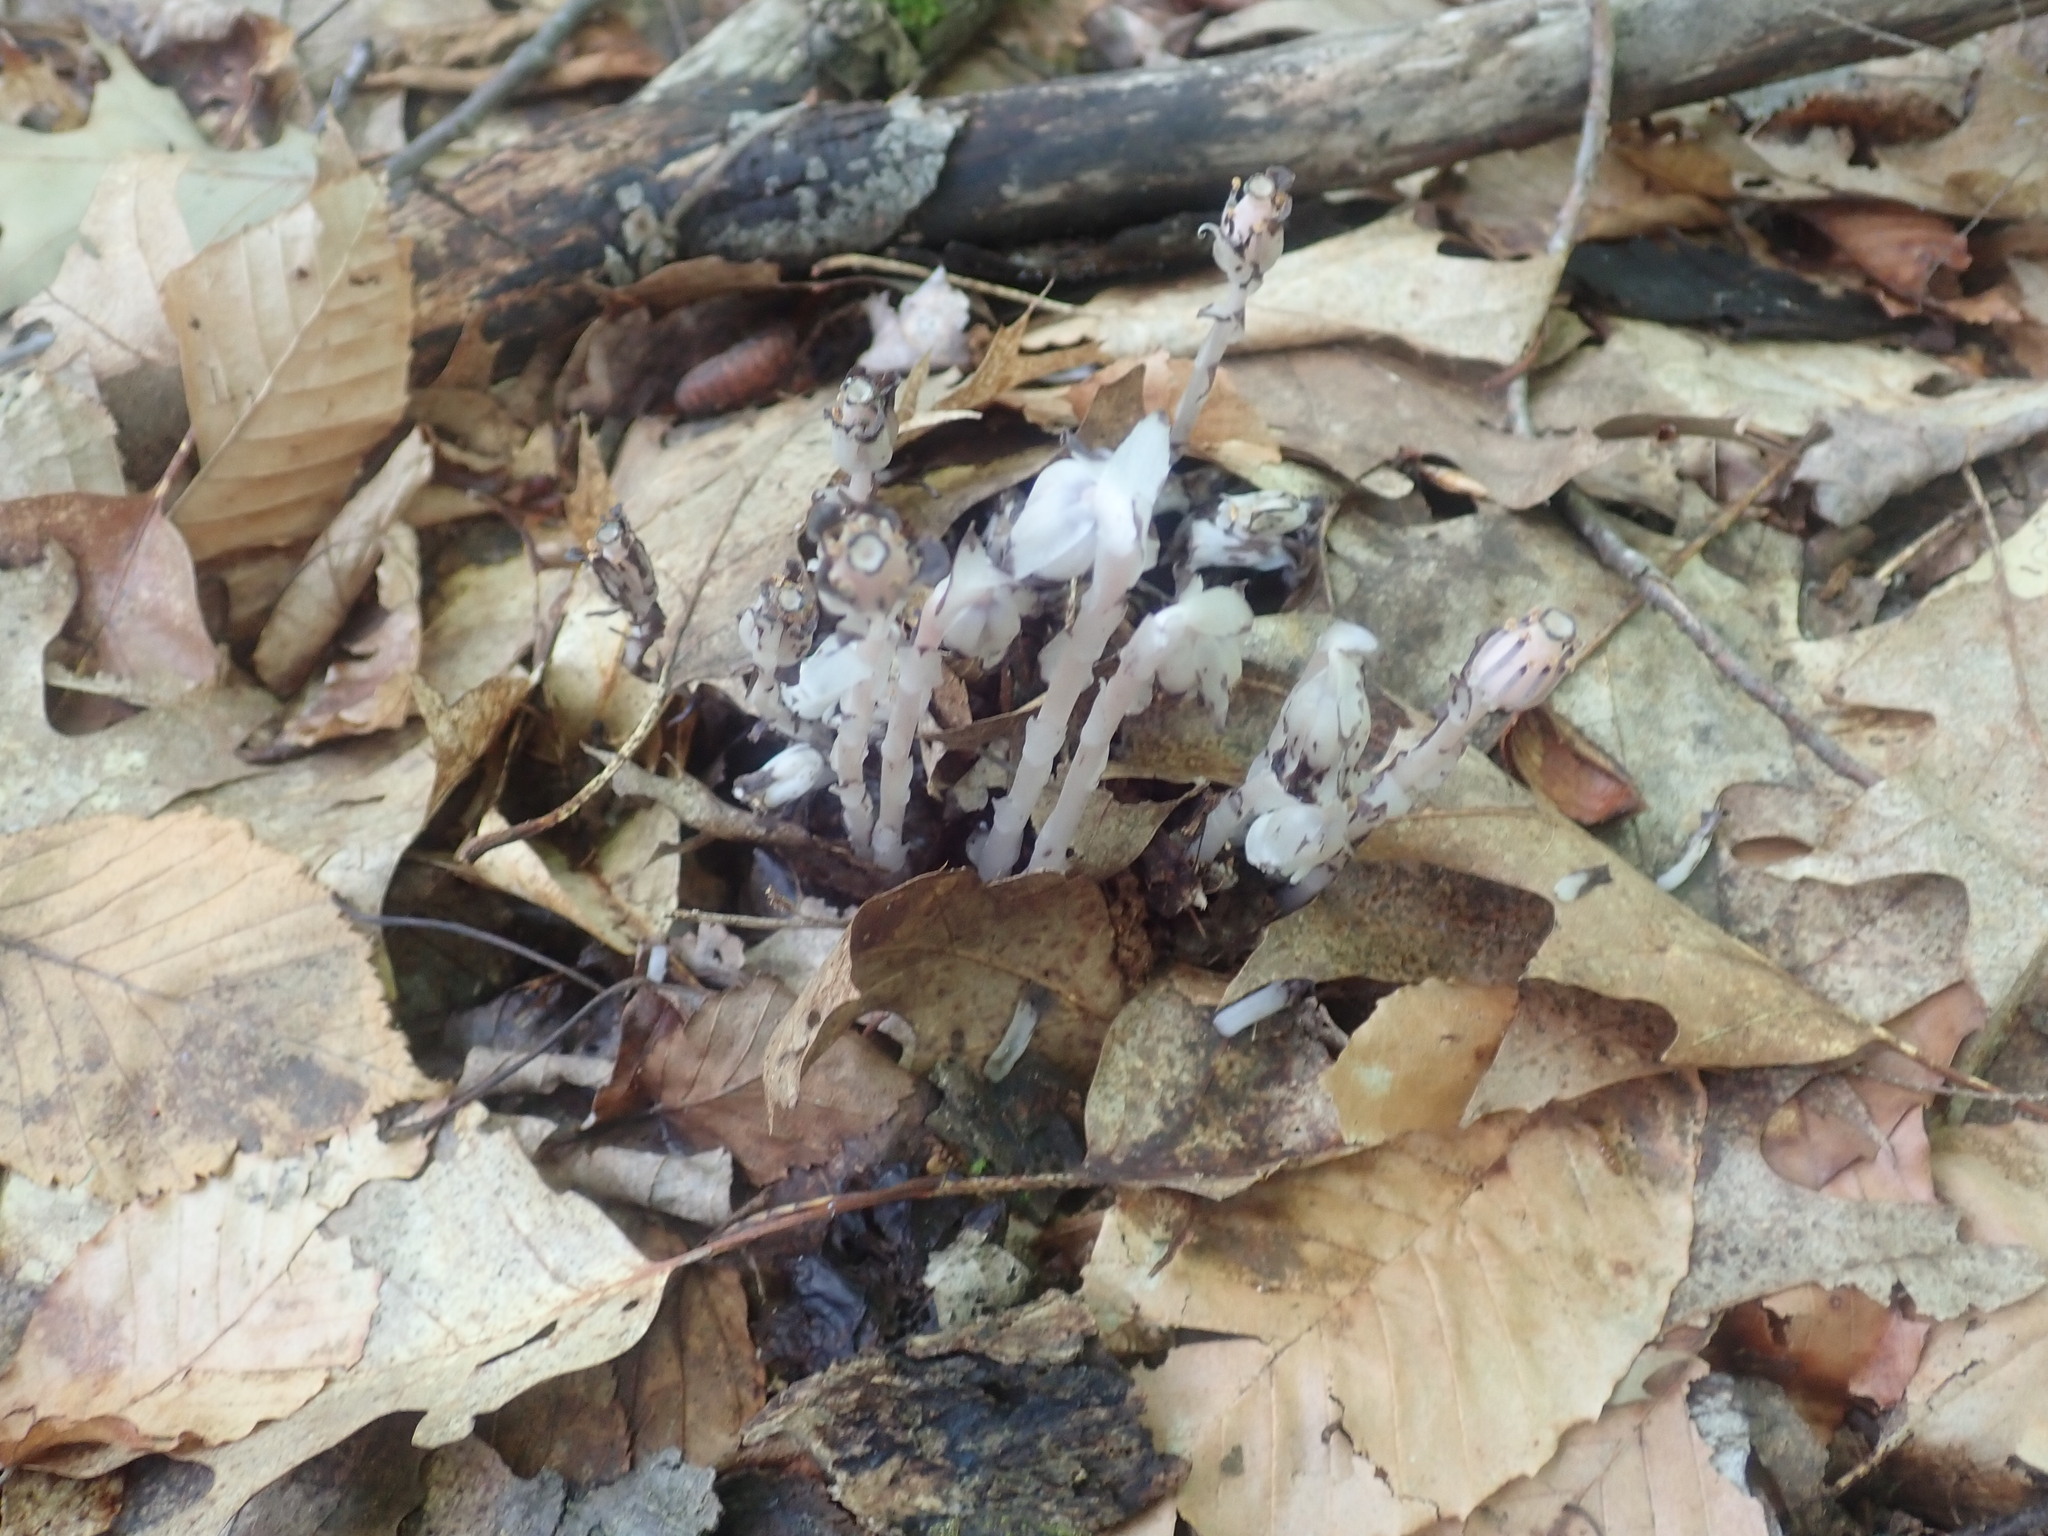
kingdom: Plantae
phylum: Tracheophyta
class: Magnoliopsida
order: Ericales
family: Ericaceae
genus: Monotropa
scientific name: Monotropa uniflora
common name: Convulsion root
